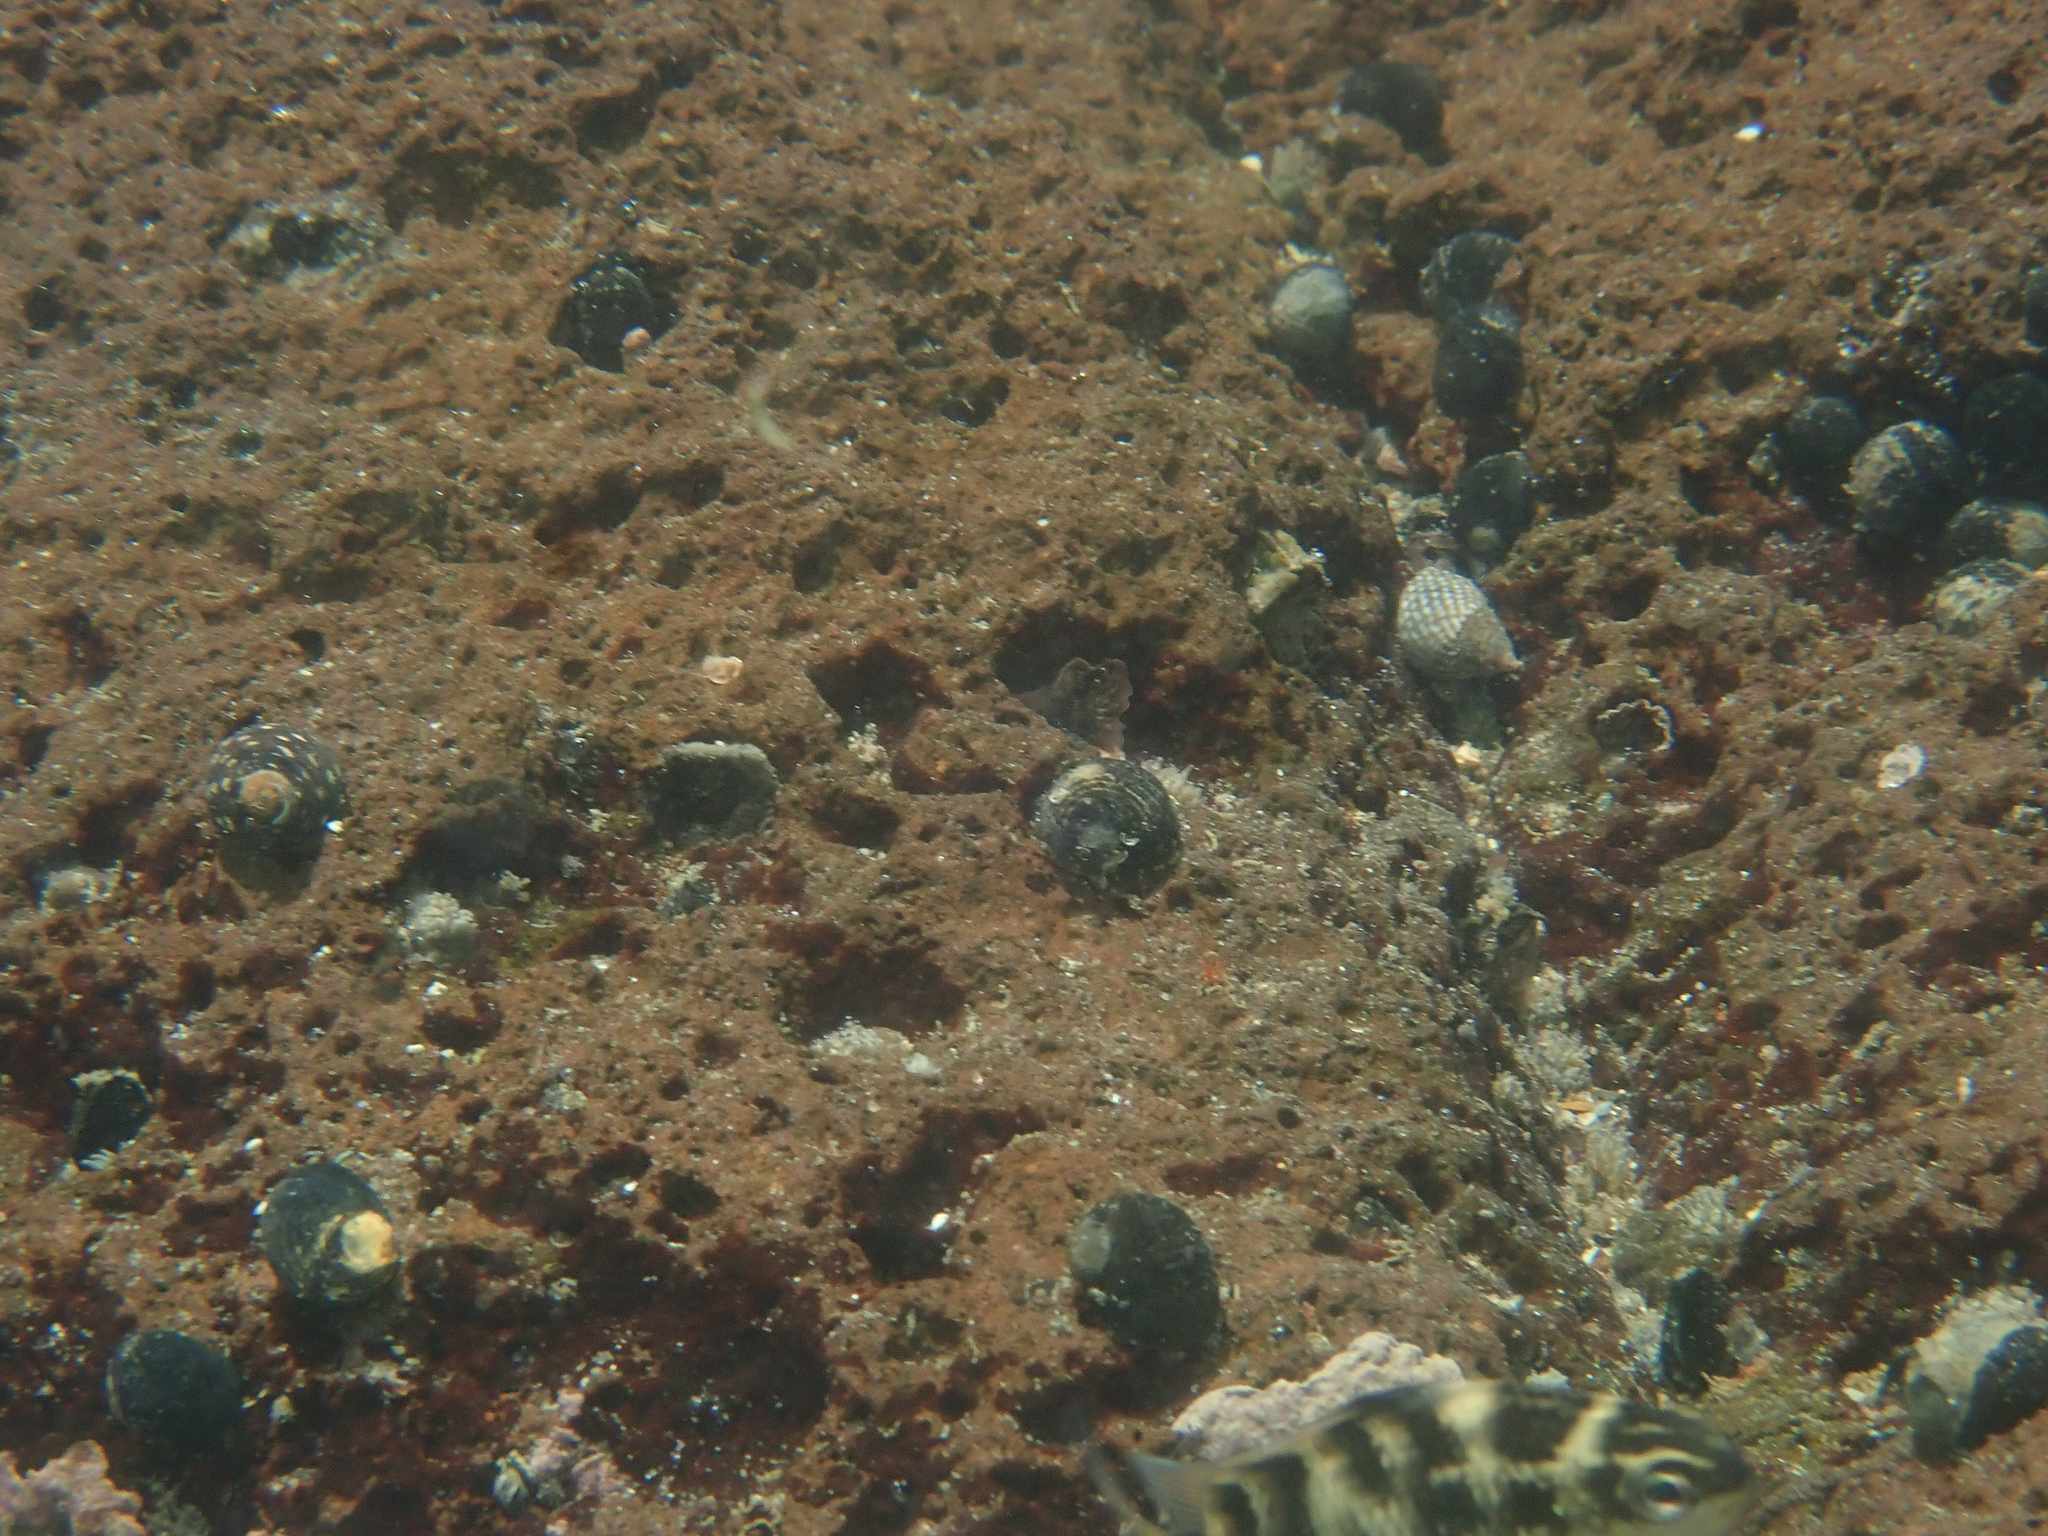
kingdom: Animalia
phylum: Mollusca
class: Gastropoda
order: Cycloneritida
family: Neritidae
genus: Nerita
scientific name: Nerita senegalensis
